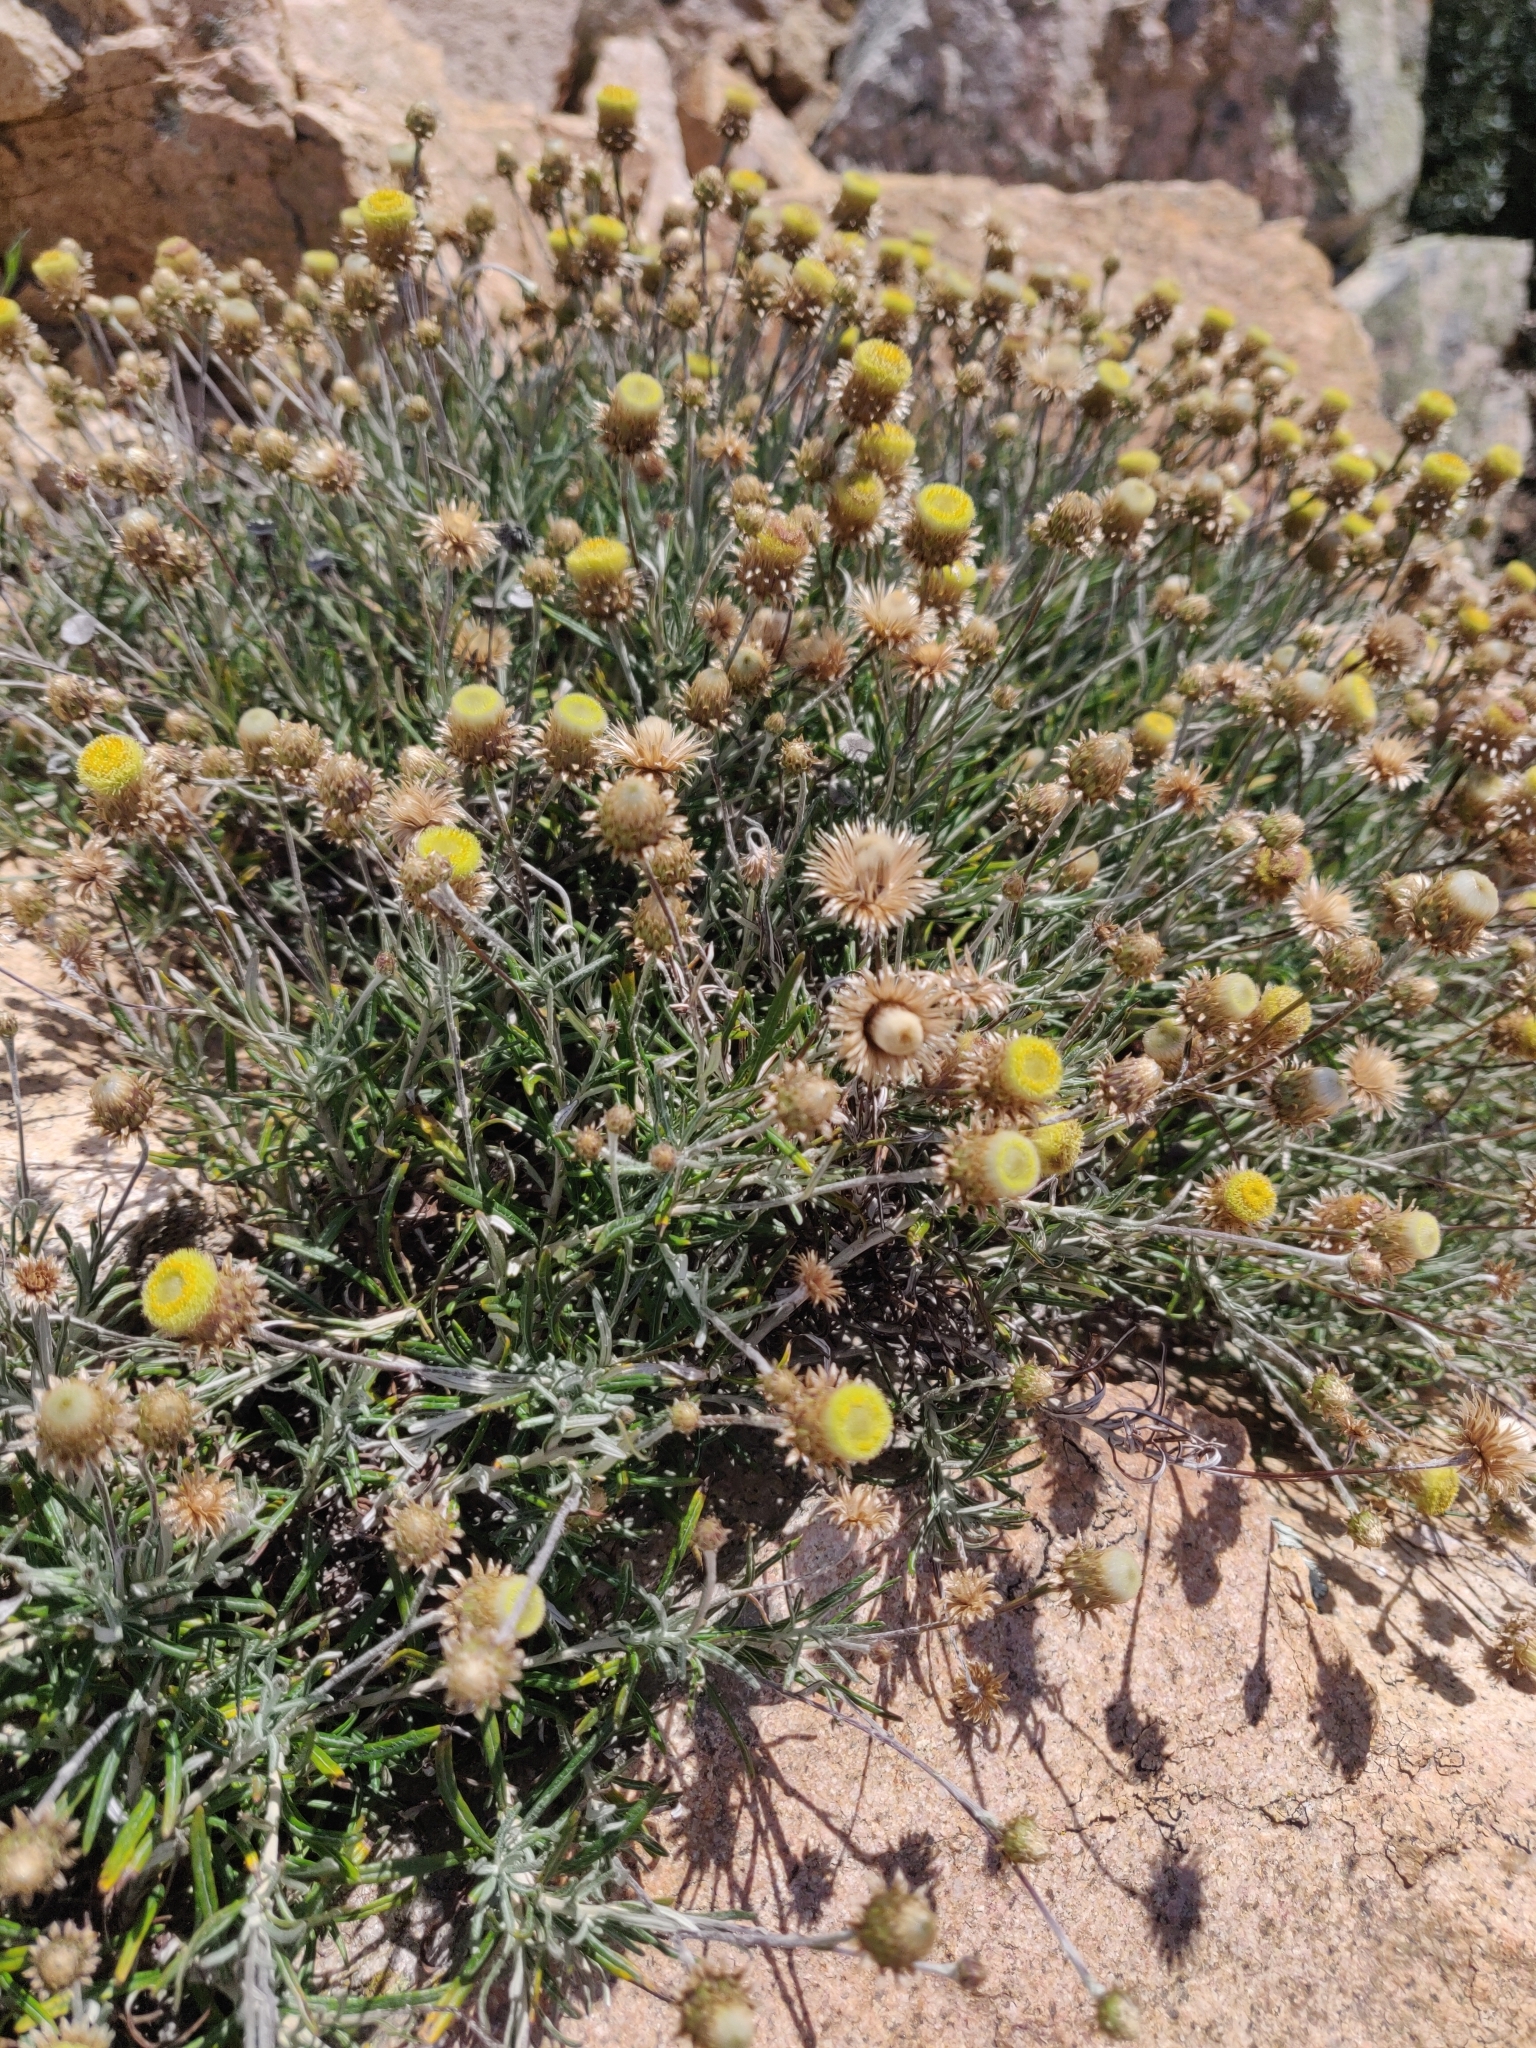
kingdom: Plantae
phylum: Tracheophyta
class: Magnoliopsida
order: Asterales
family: Asteraceae
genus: Phagnalon
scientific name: Phagnalon saxatile
